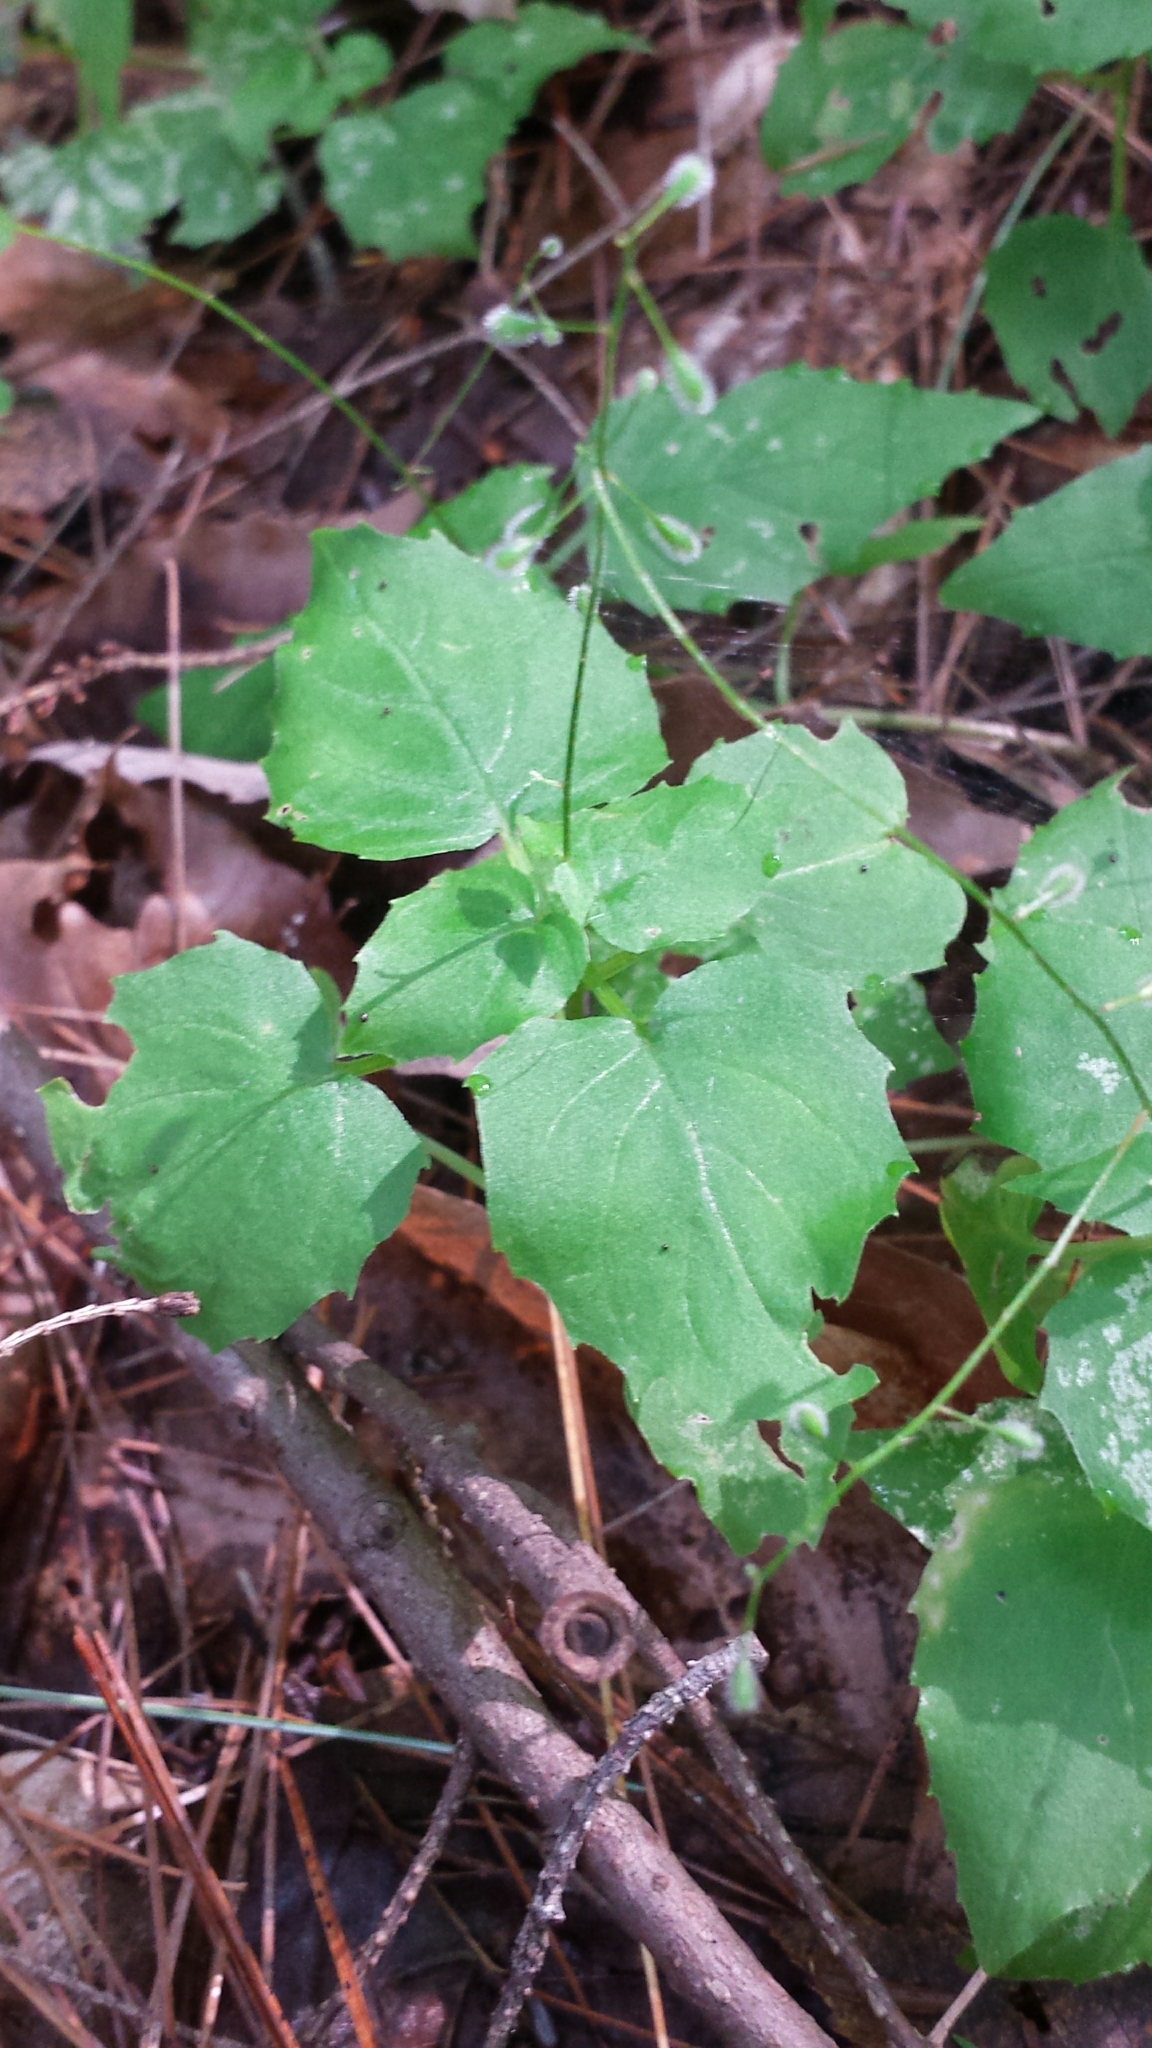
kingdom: Plantae
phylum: Tracheophyta
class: Magnoliopsida
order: Myrtales
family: Onagraceae
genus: Circaea
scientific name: Circaea alpina
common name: Alpine enchanter's-nightshade
